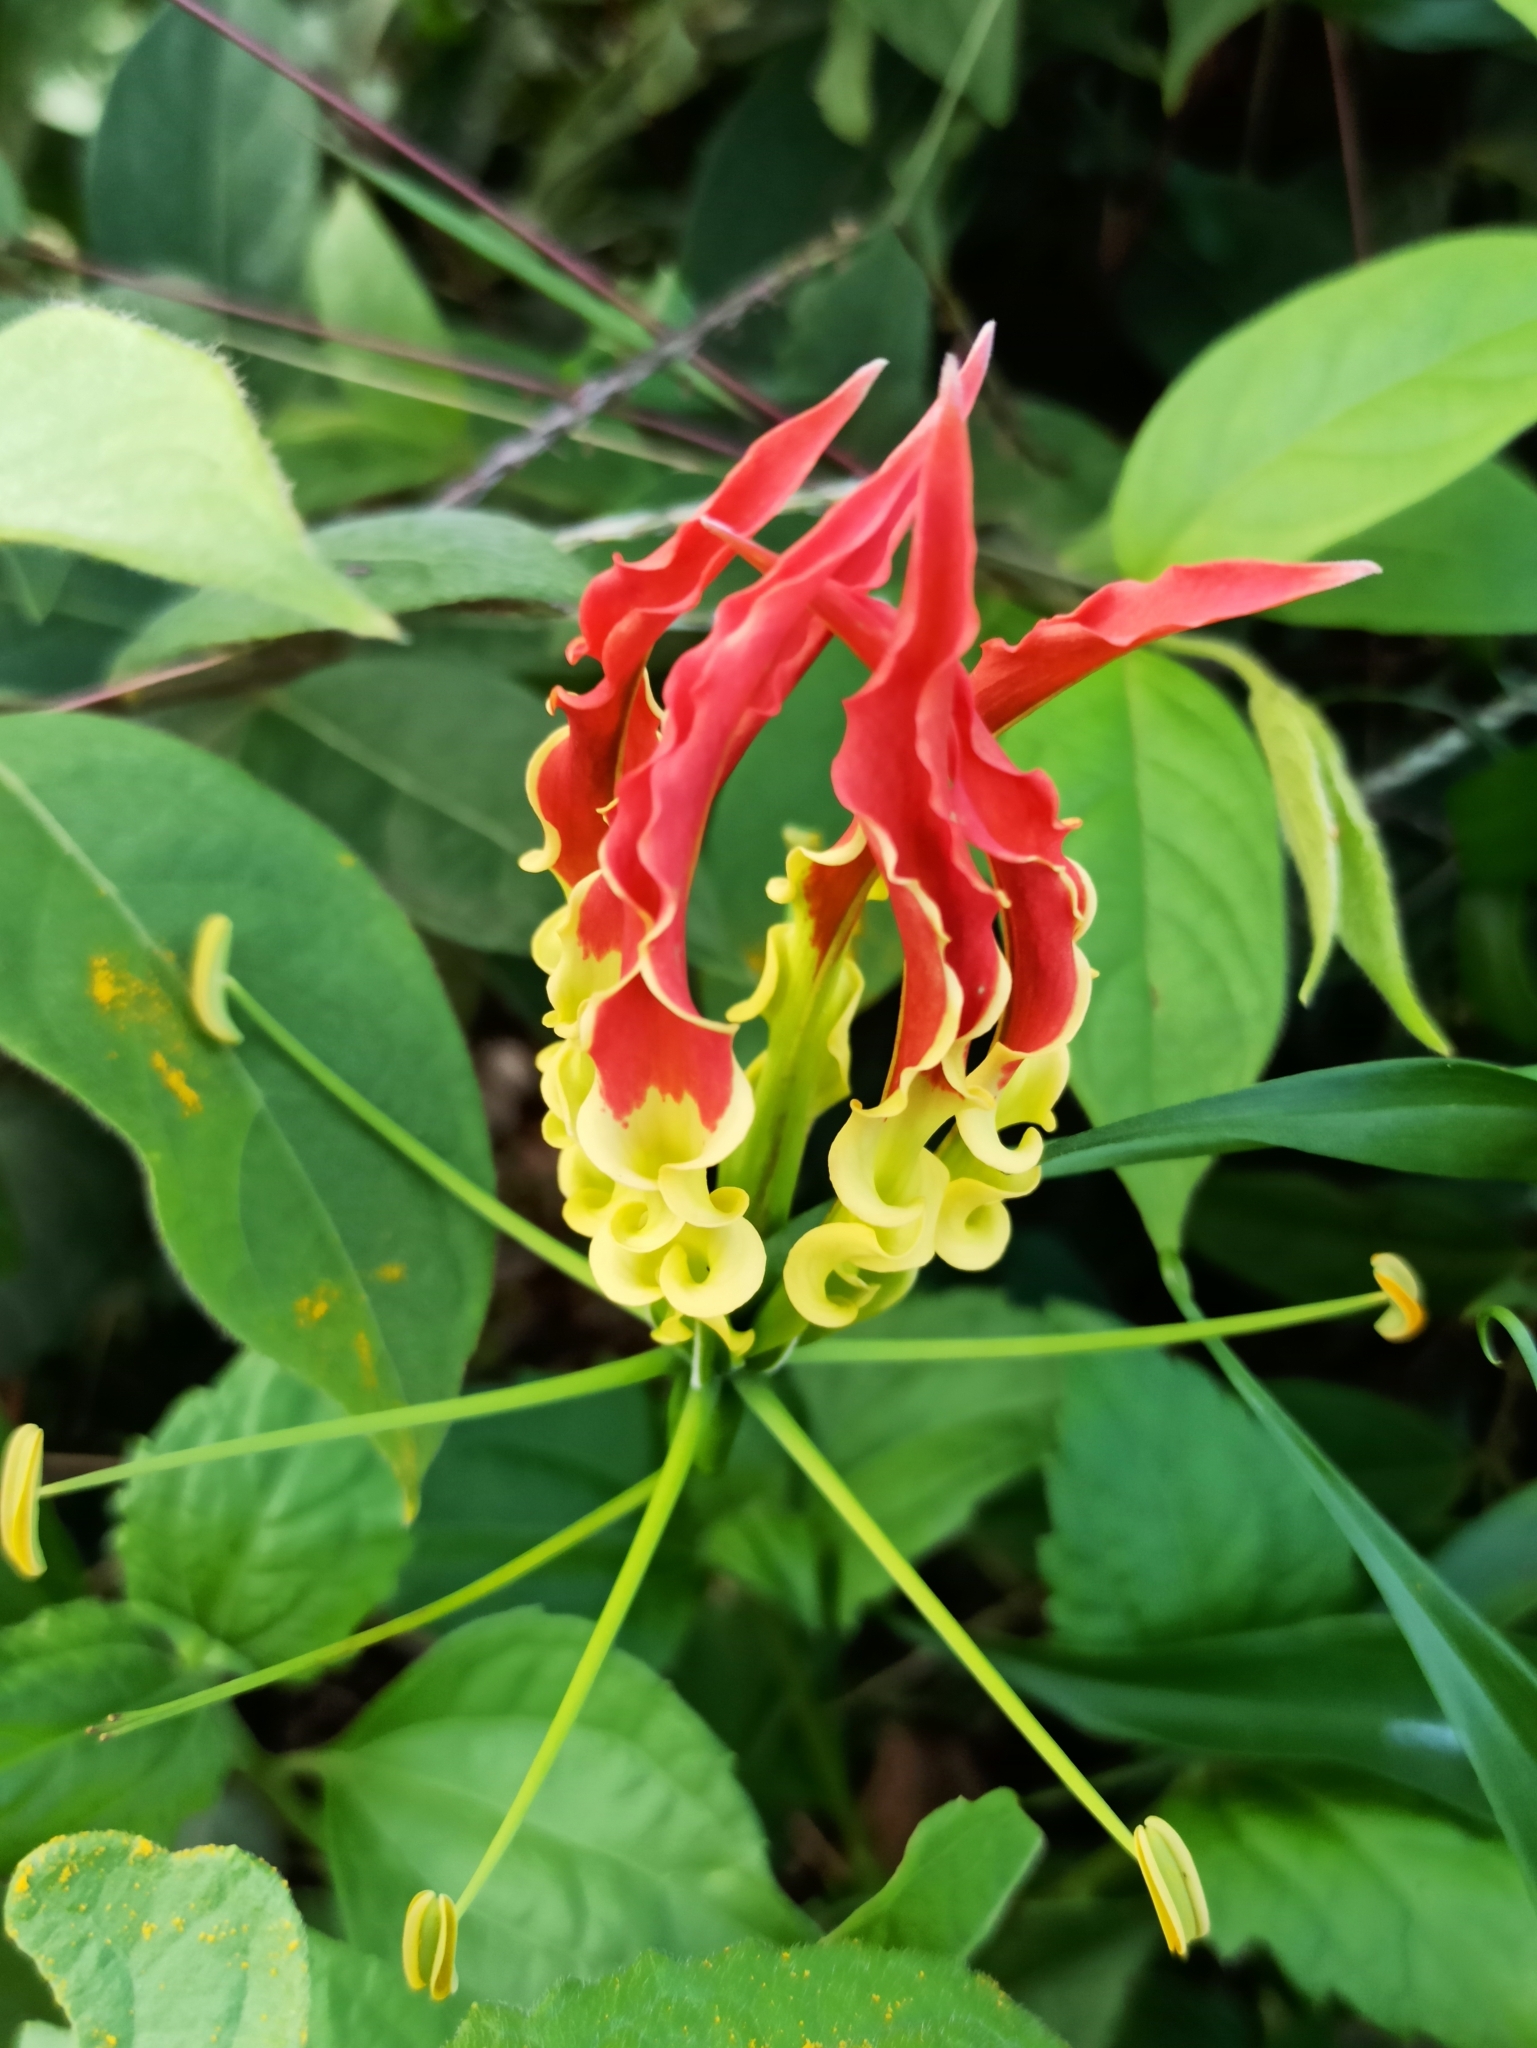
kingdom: Plantae
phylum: Tracheophyta
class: Liliopsida
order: Liliales
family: Colchicaceae
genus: Gloriosa
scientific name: Gloriosa superba
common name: Flame lily
